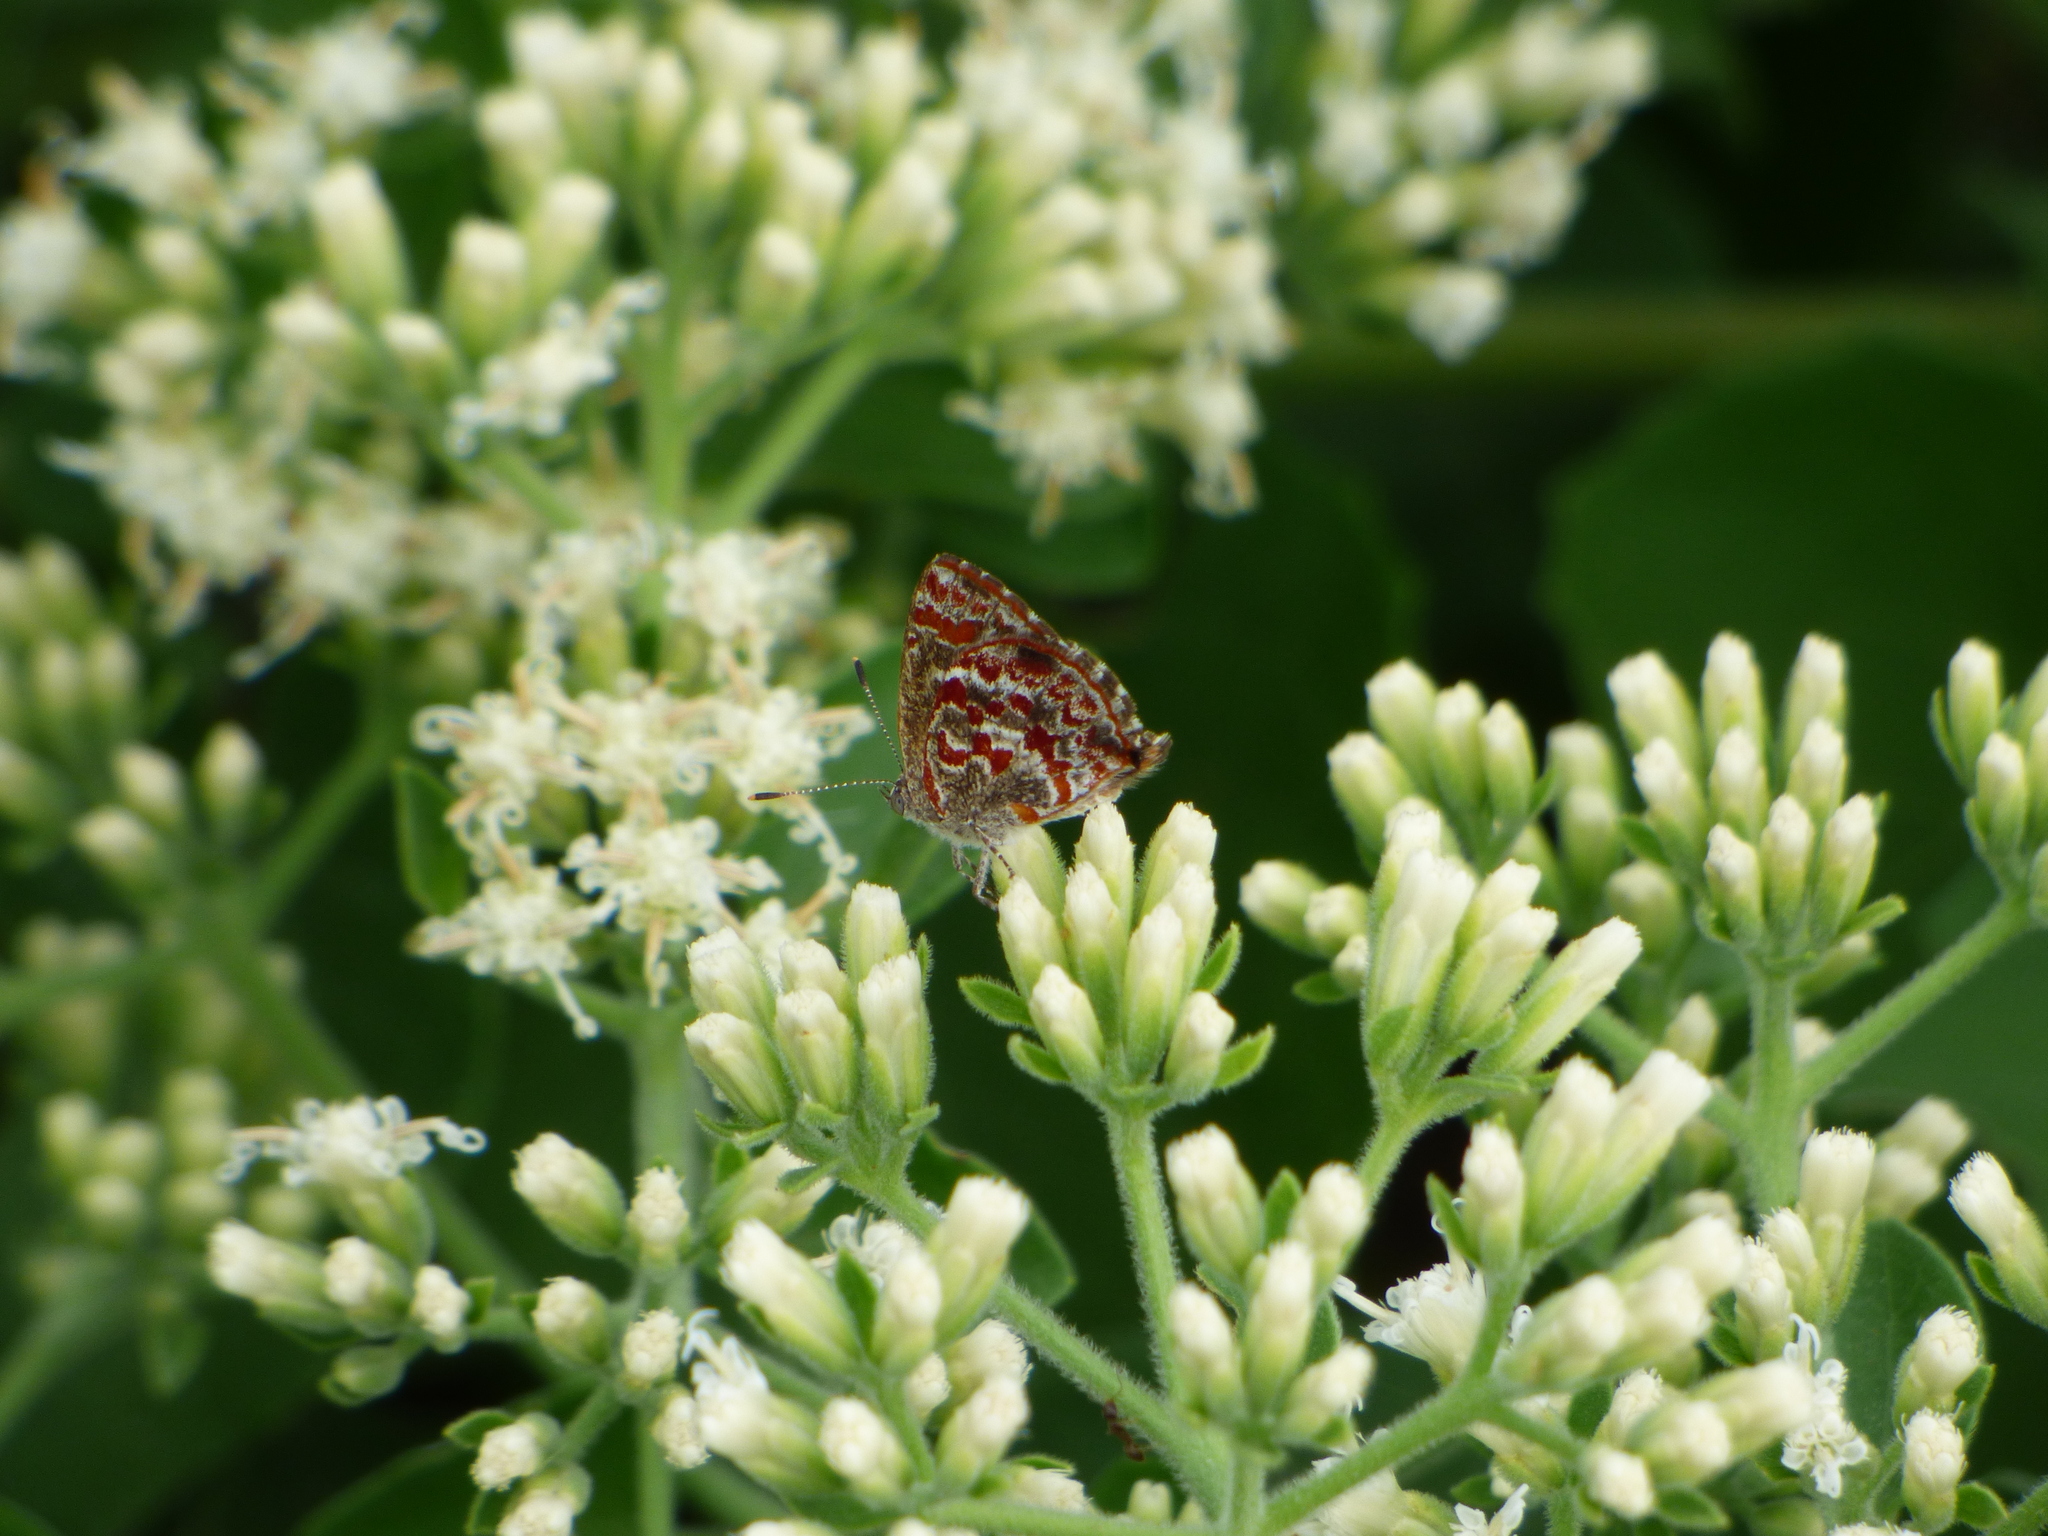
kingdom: Animalia
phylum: Arthropoda
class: Insecta
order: Lepidoptera
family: Lycaenidae
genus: Ministrymon
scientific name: Ministrymon
